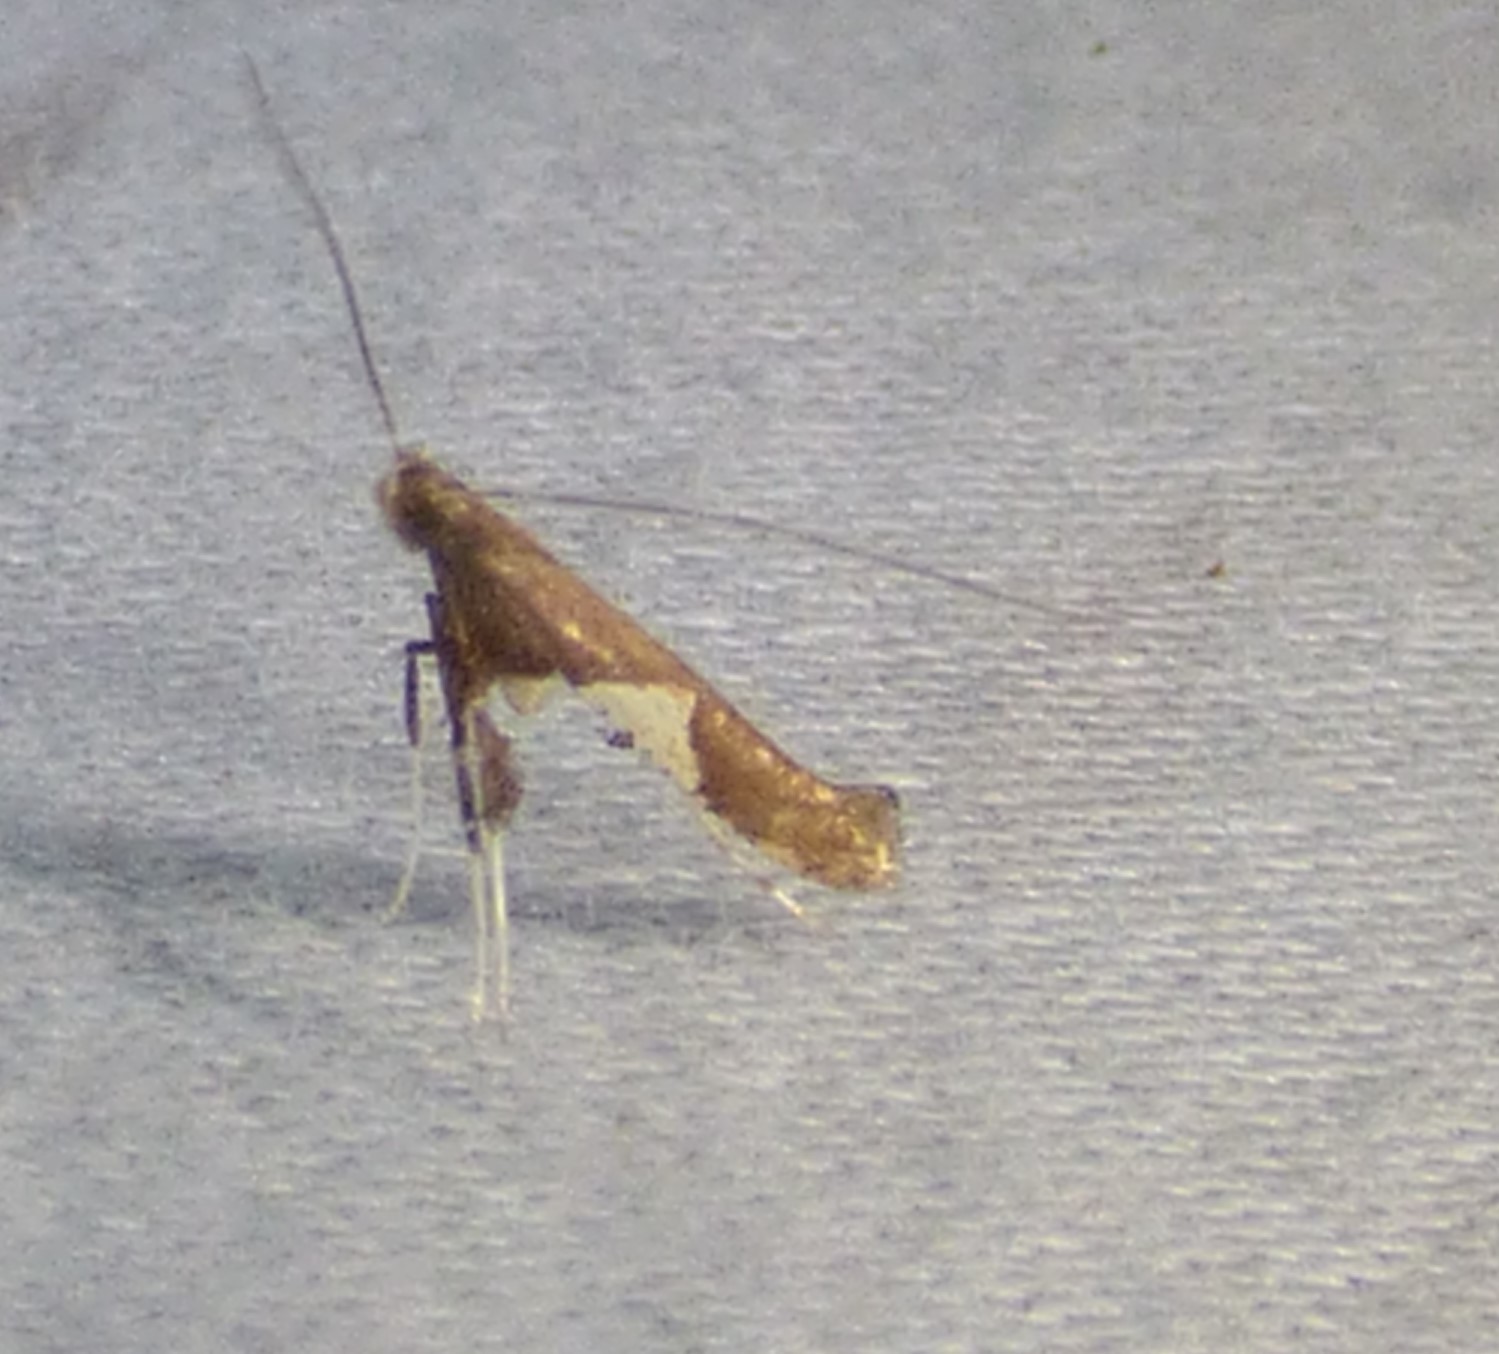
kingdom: Animalia
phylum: Arthropoda
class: Insecta
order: Lepidoptera
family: Gracillariidae
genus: Caloptilia
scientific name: Caloptilia stigmatella
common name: White-triangle slender
